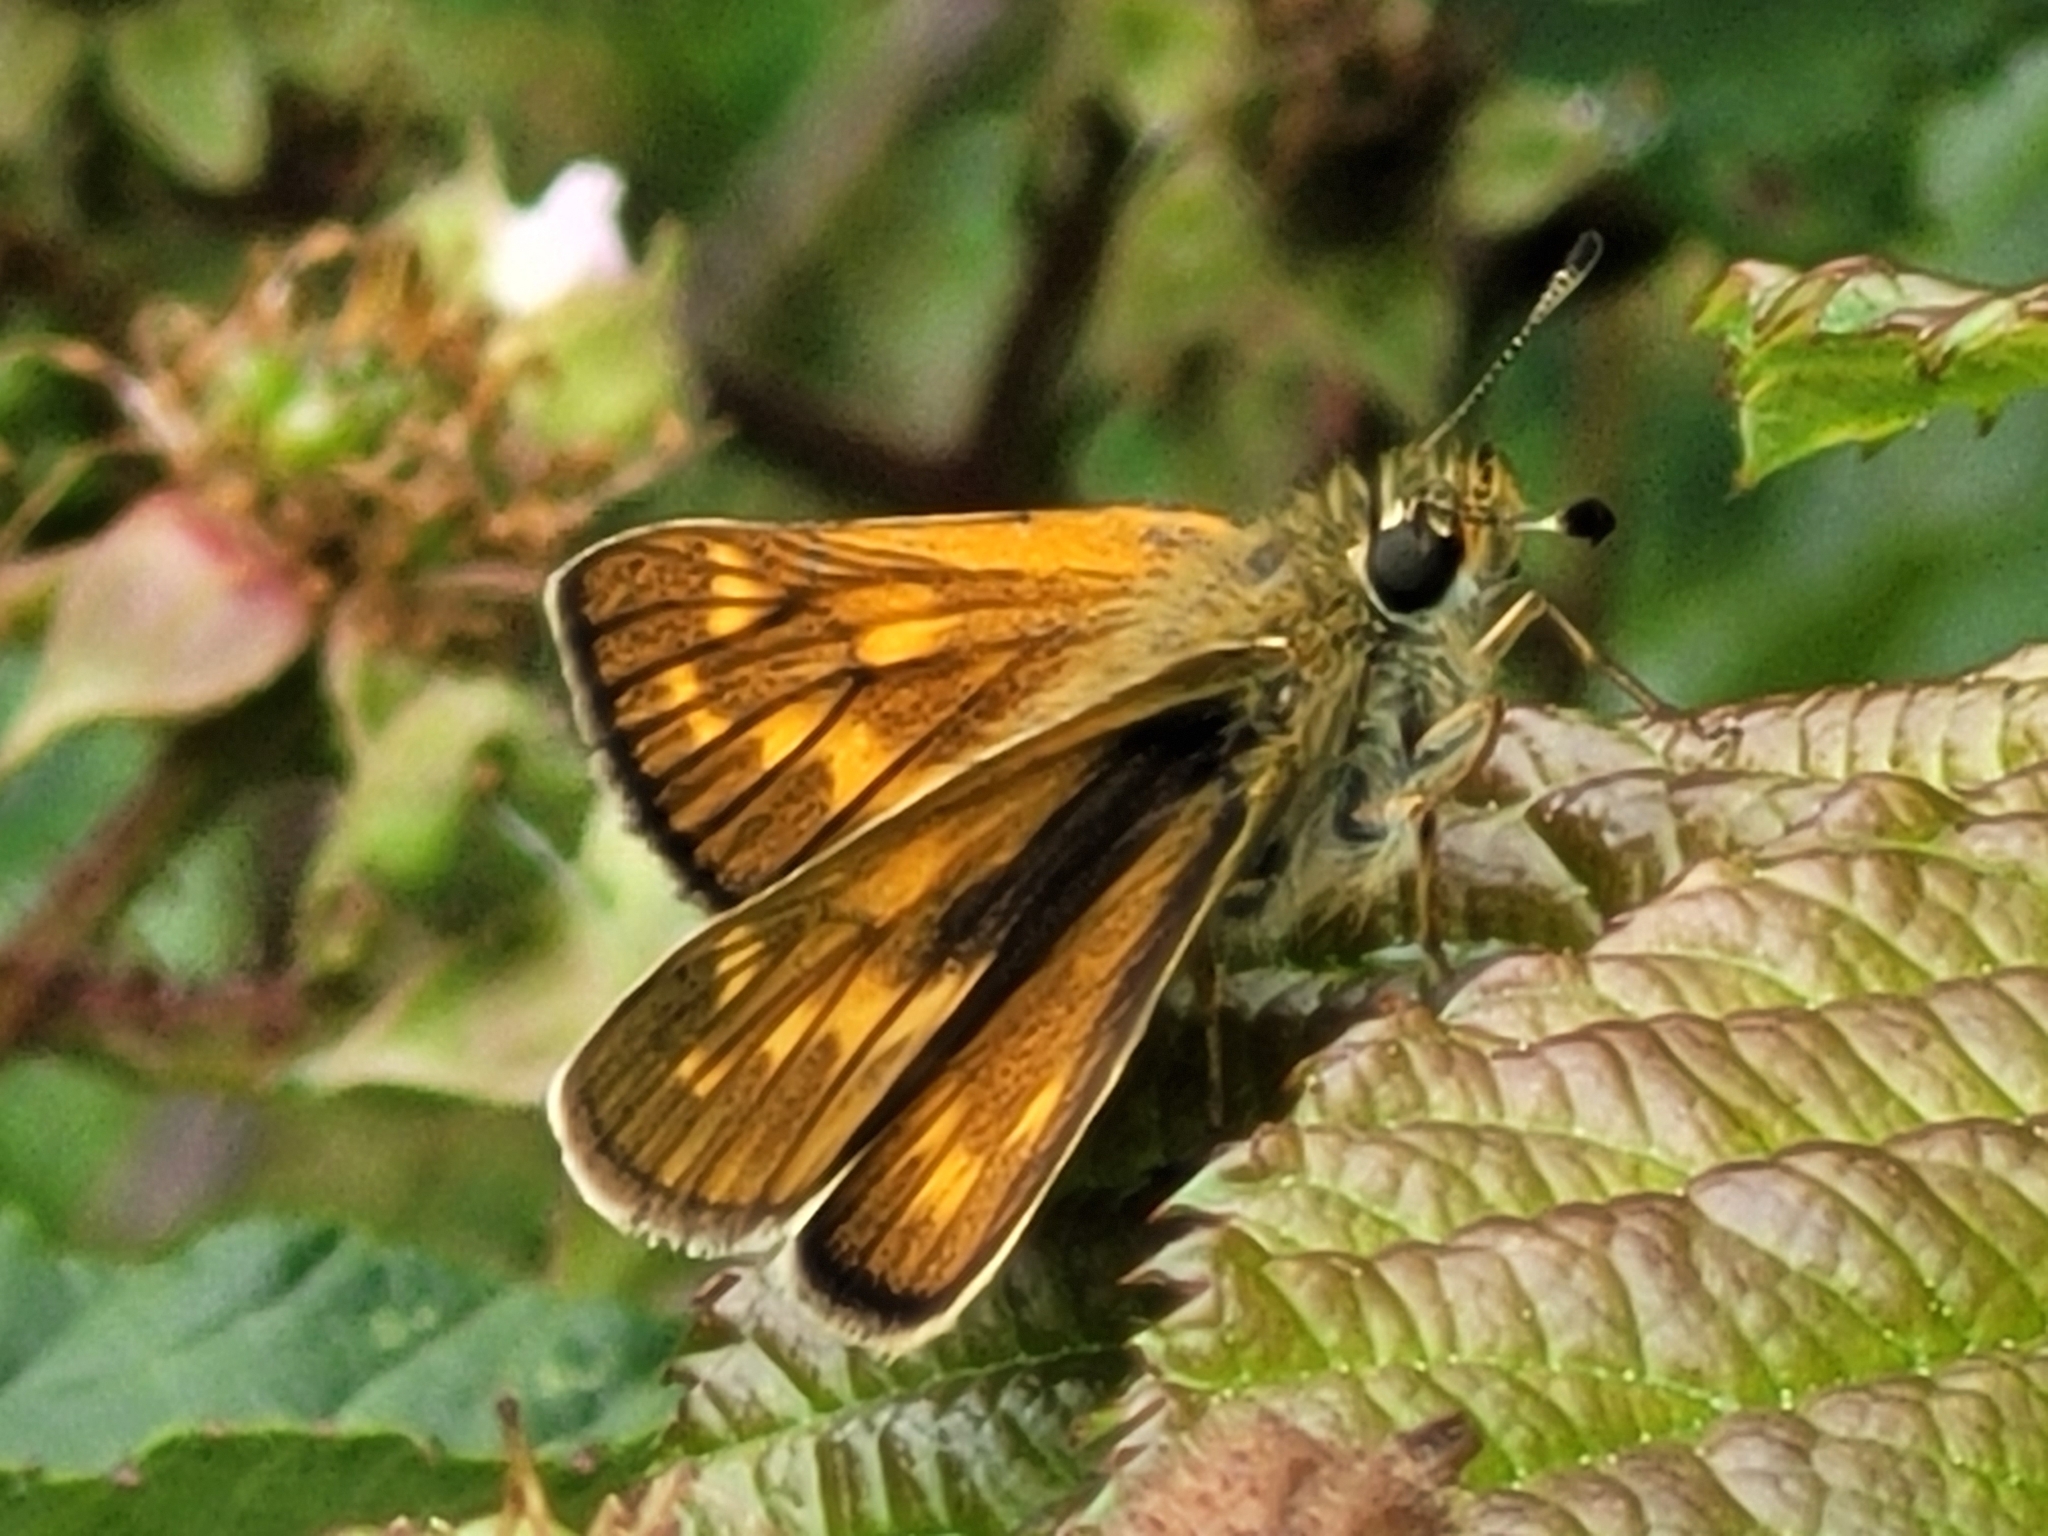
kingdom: Animalia
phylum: Arthropoda
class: Insecta
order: Lepidoptera
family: Hesperiidae
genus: Ochlodes
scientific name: Ochlodes venata
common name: Large skipper
